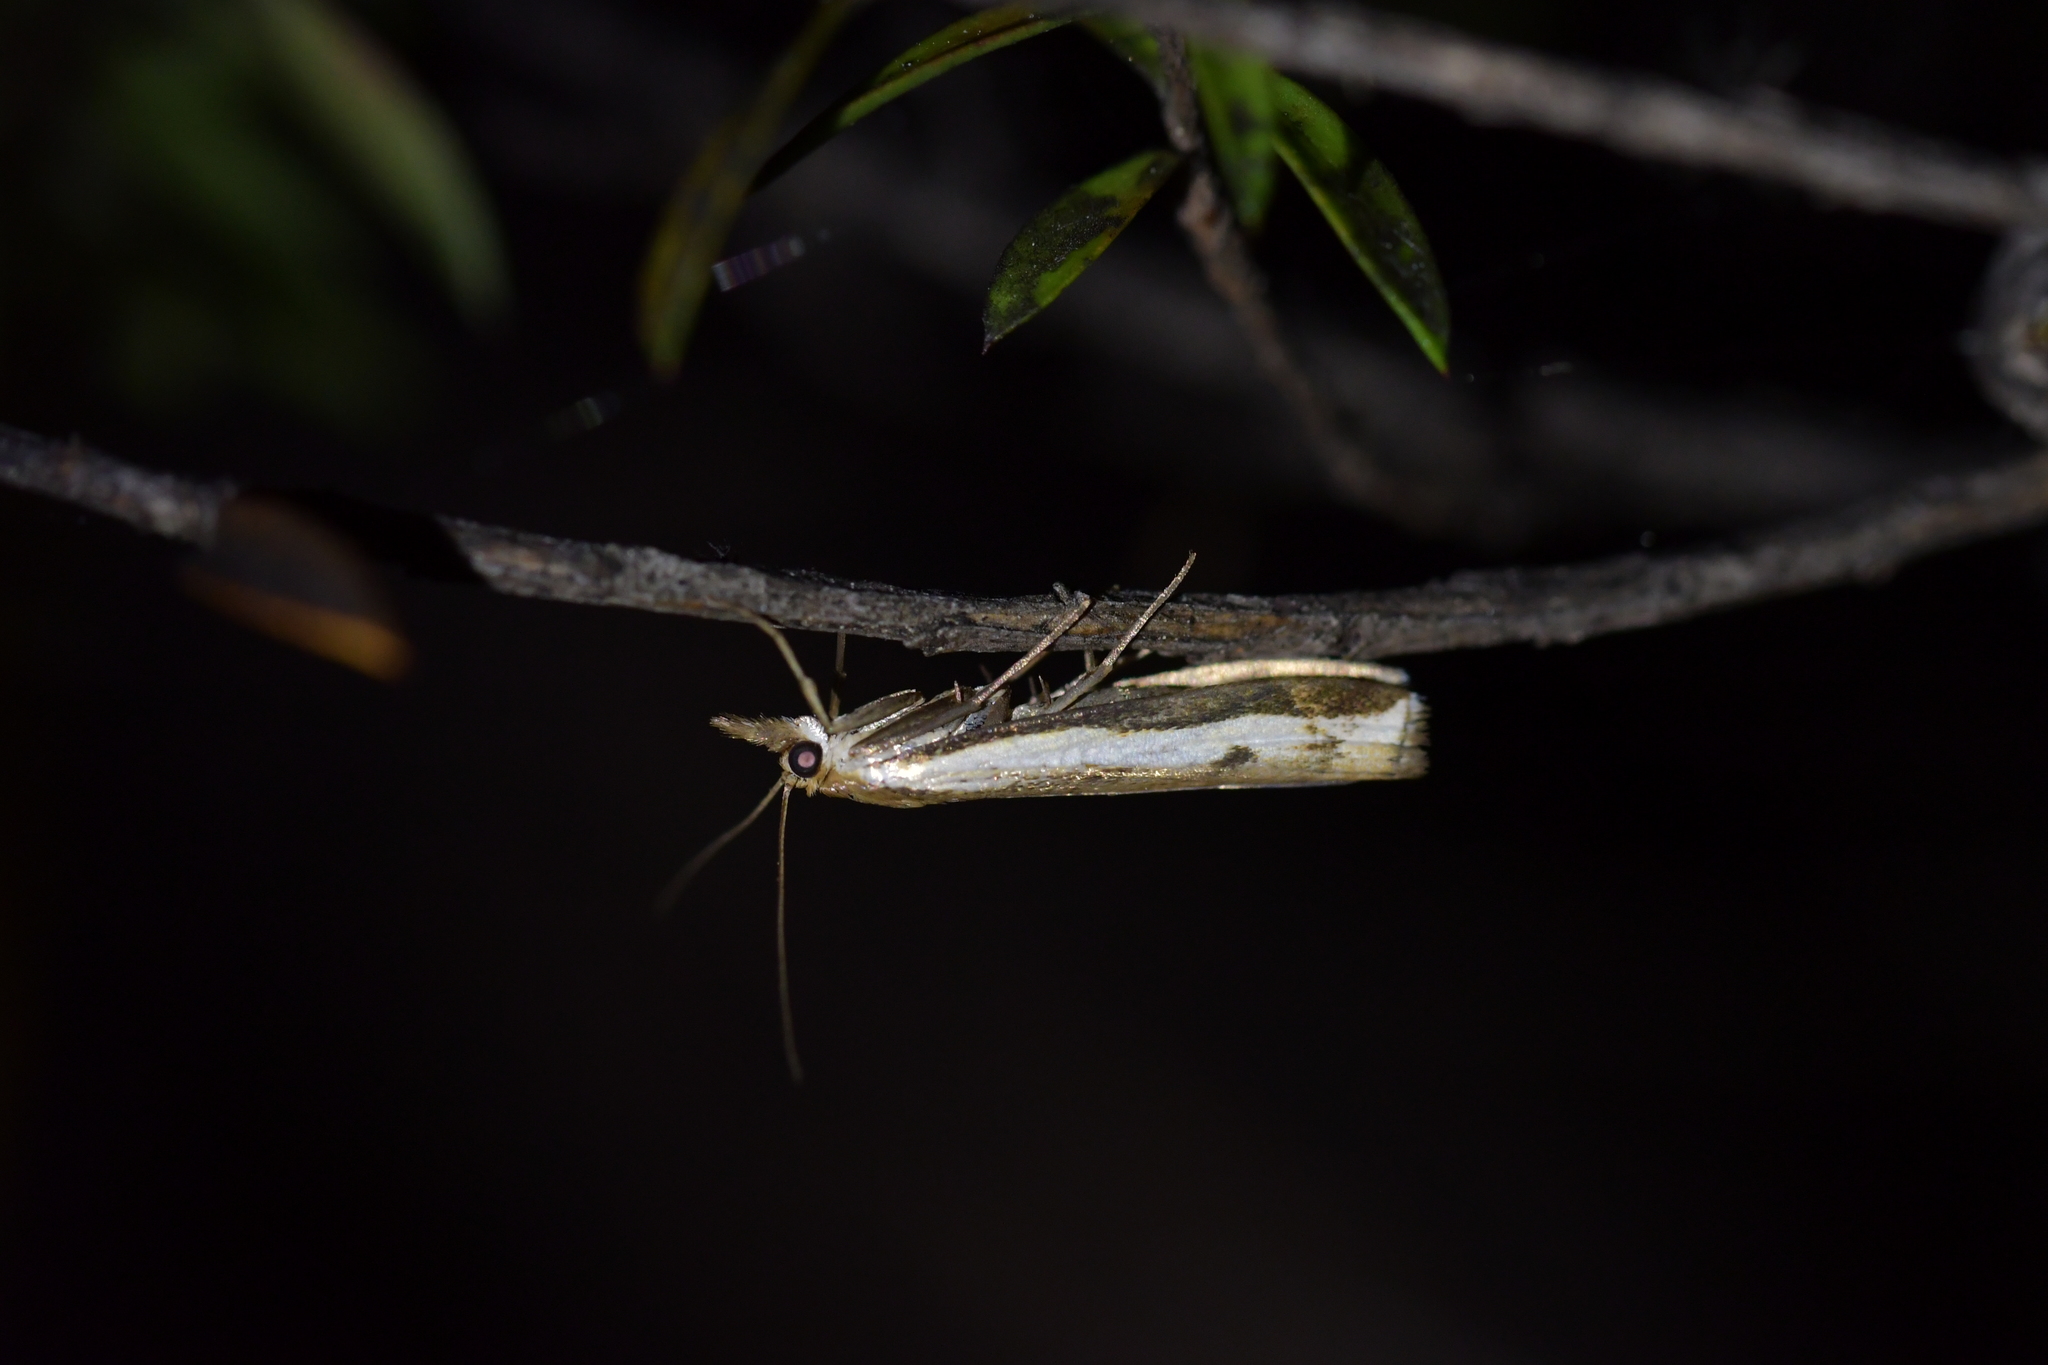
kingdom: Animalia
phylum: Arthropoda
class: Insecta
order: Lepidoptera
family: Crambidae
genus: Orocrambus
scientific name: Orocrambus flexuosellus
